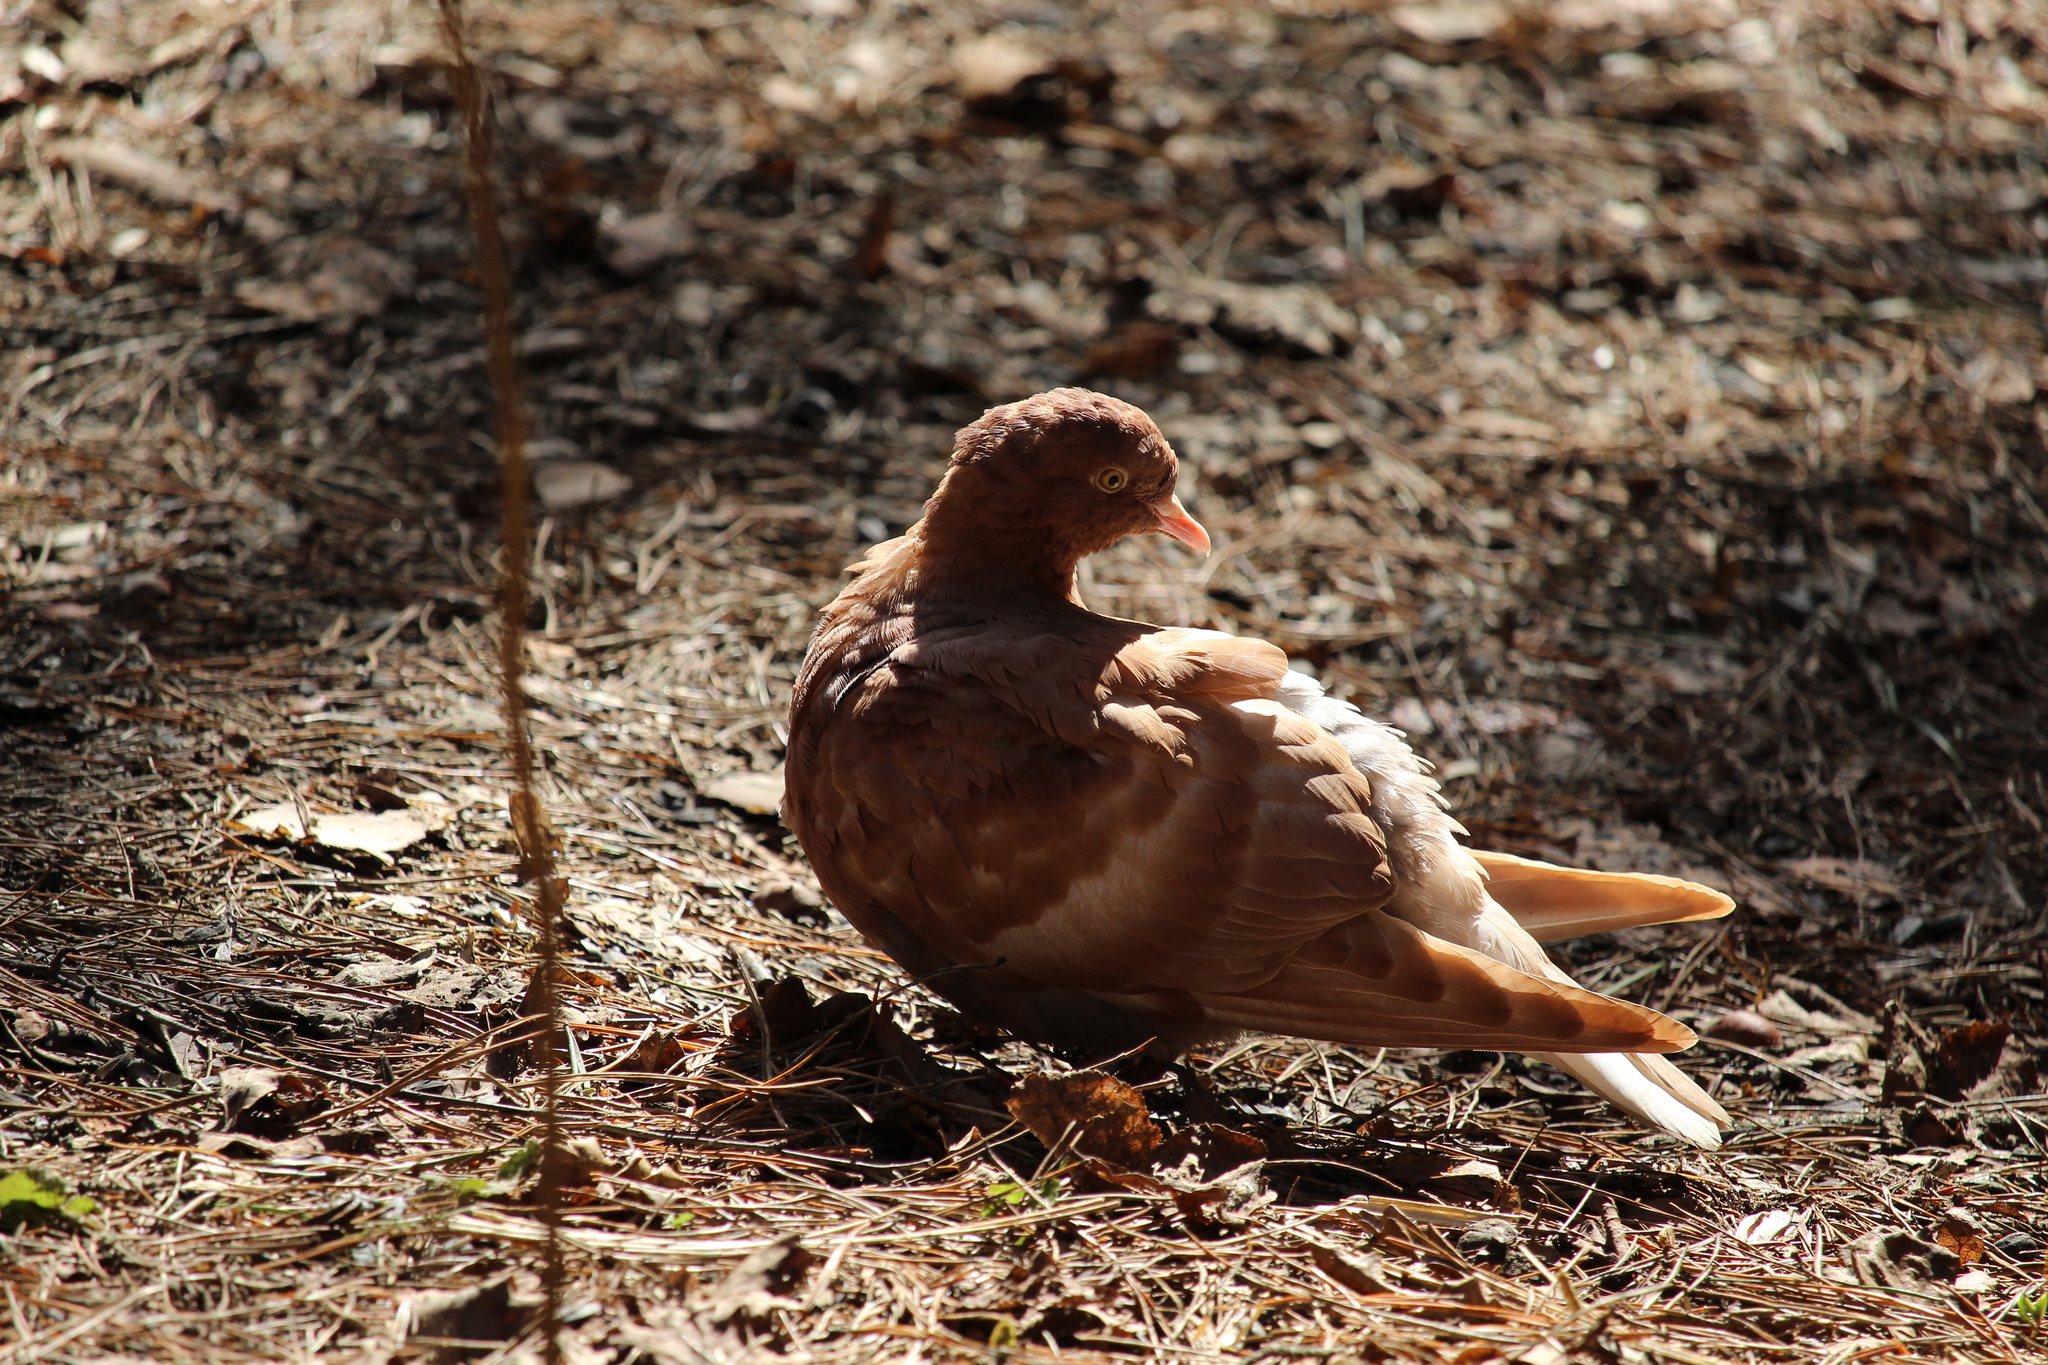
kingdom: Animalia
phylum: Chordata
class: Aves
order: Columbiformes
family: Columbidae
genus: Columba
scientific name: Columba livia
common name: Rock pigeon
